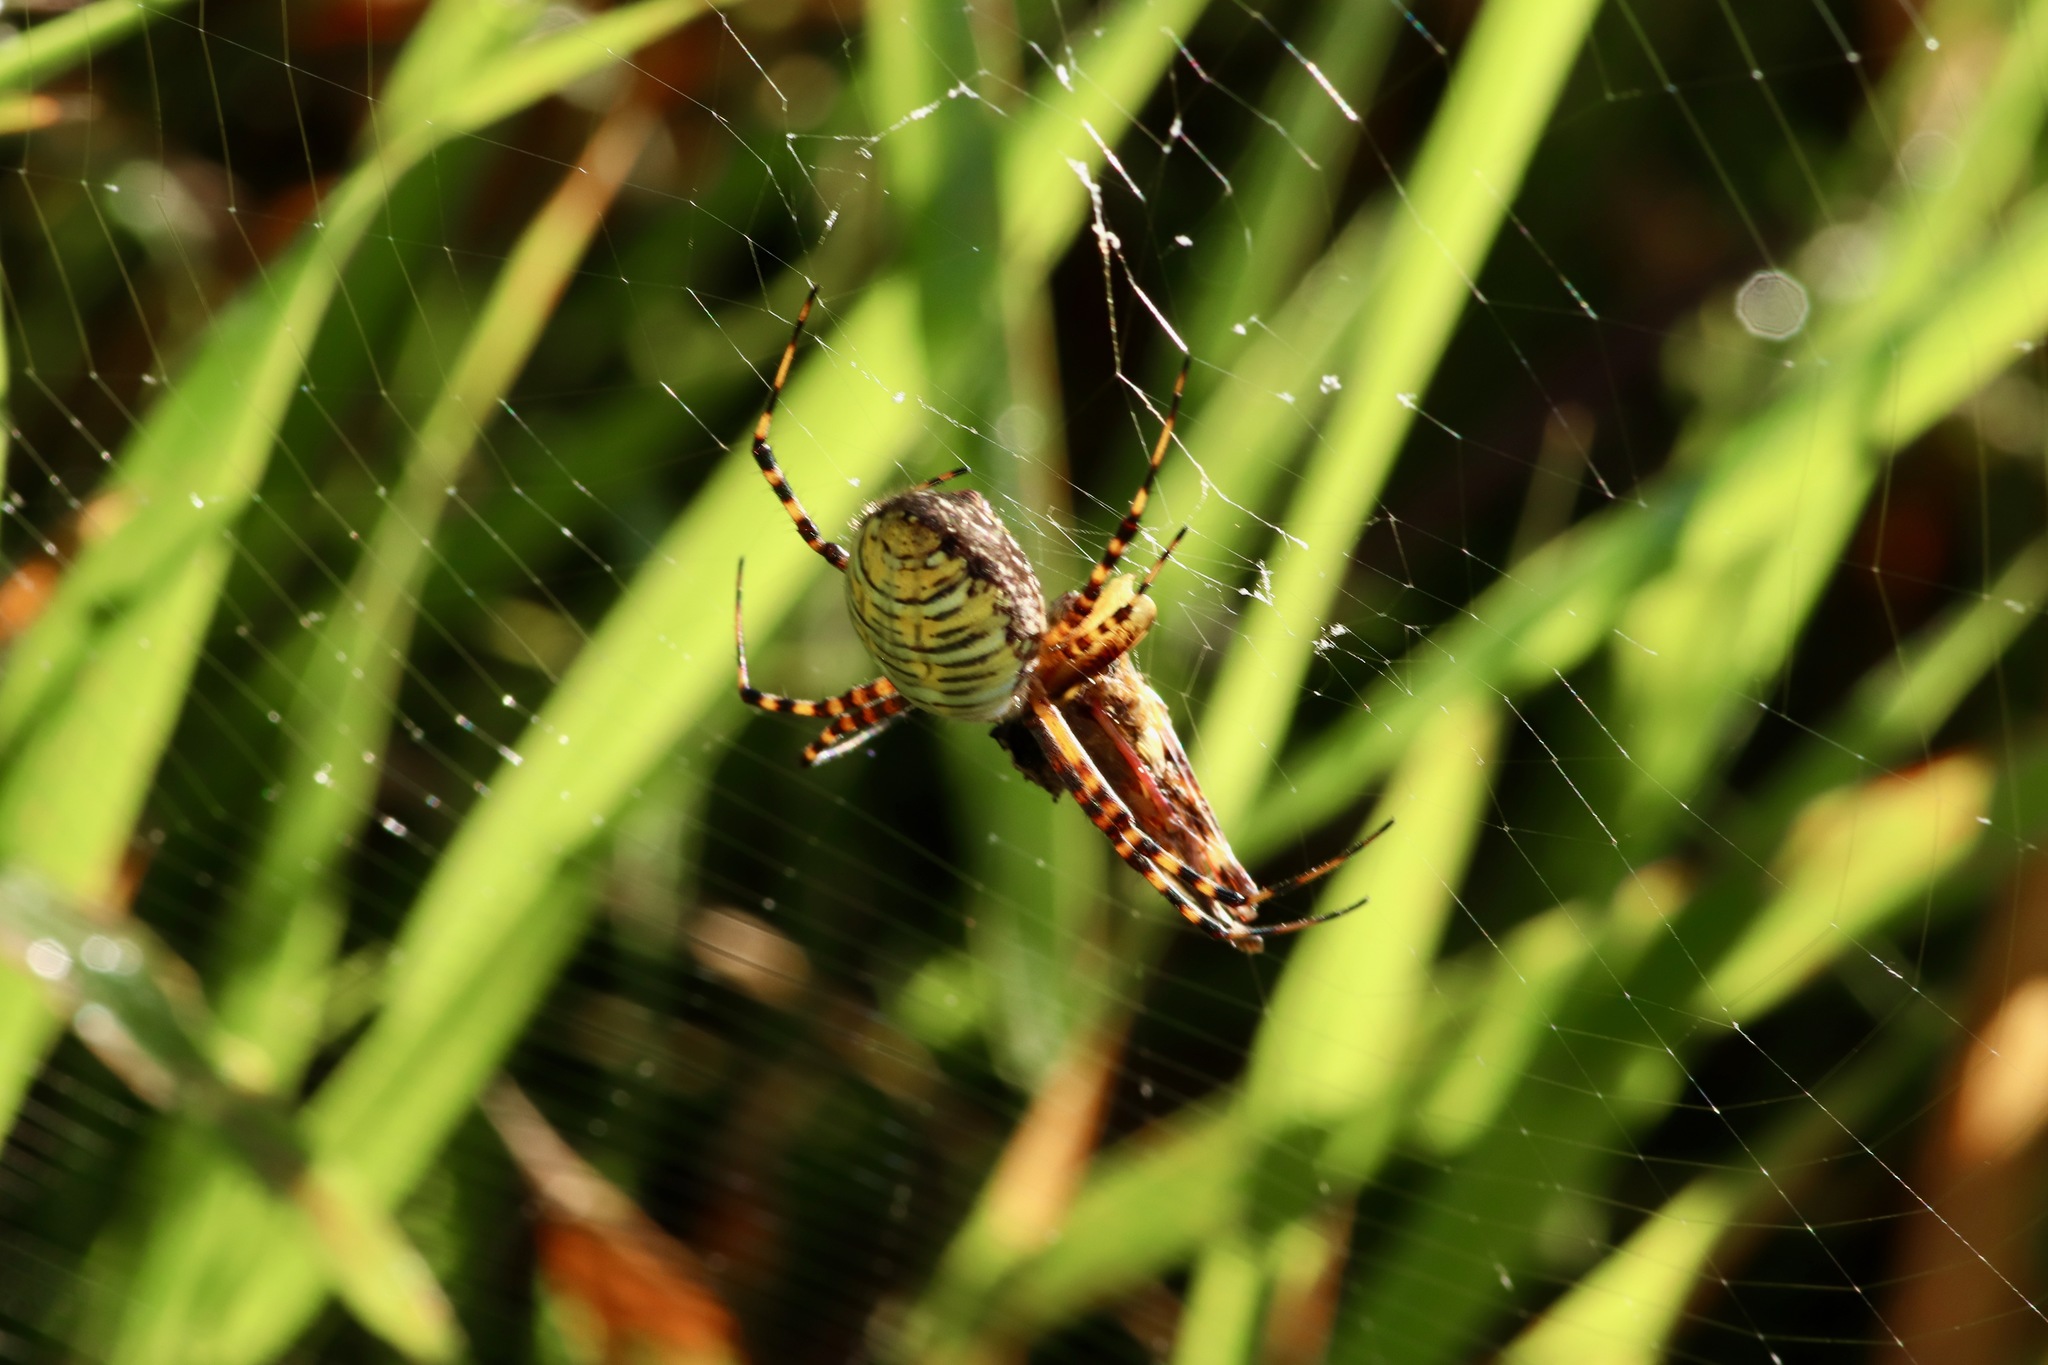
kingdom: Animalia
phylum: Arthropoda
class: Arachnida
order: Araneae
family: Araneidae
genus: Argiope
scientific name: Argiope trifasciata
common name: Banded garden spider
